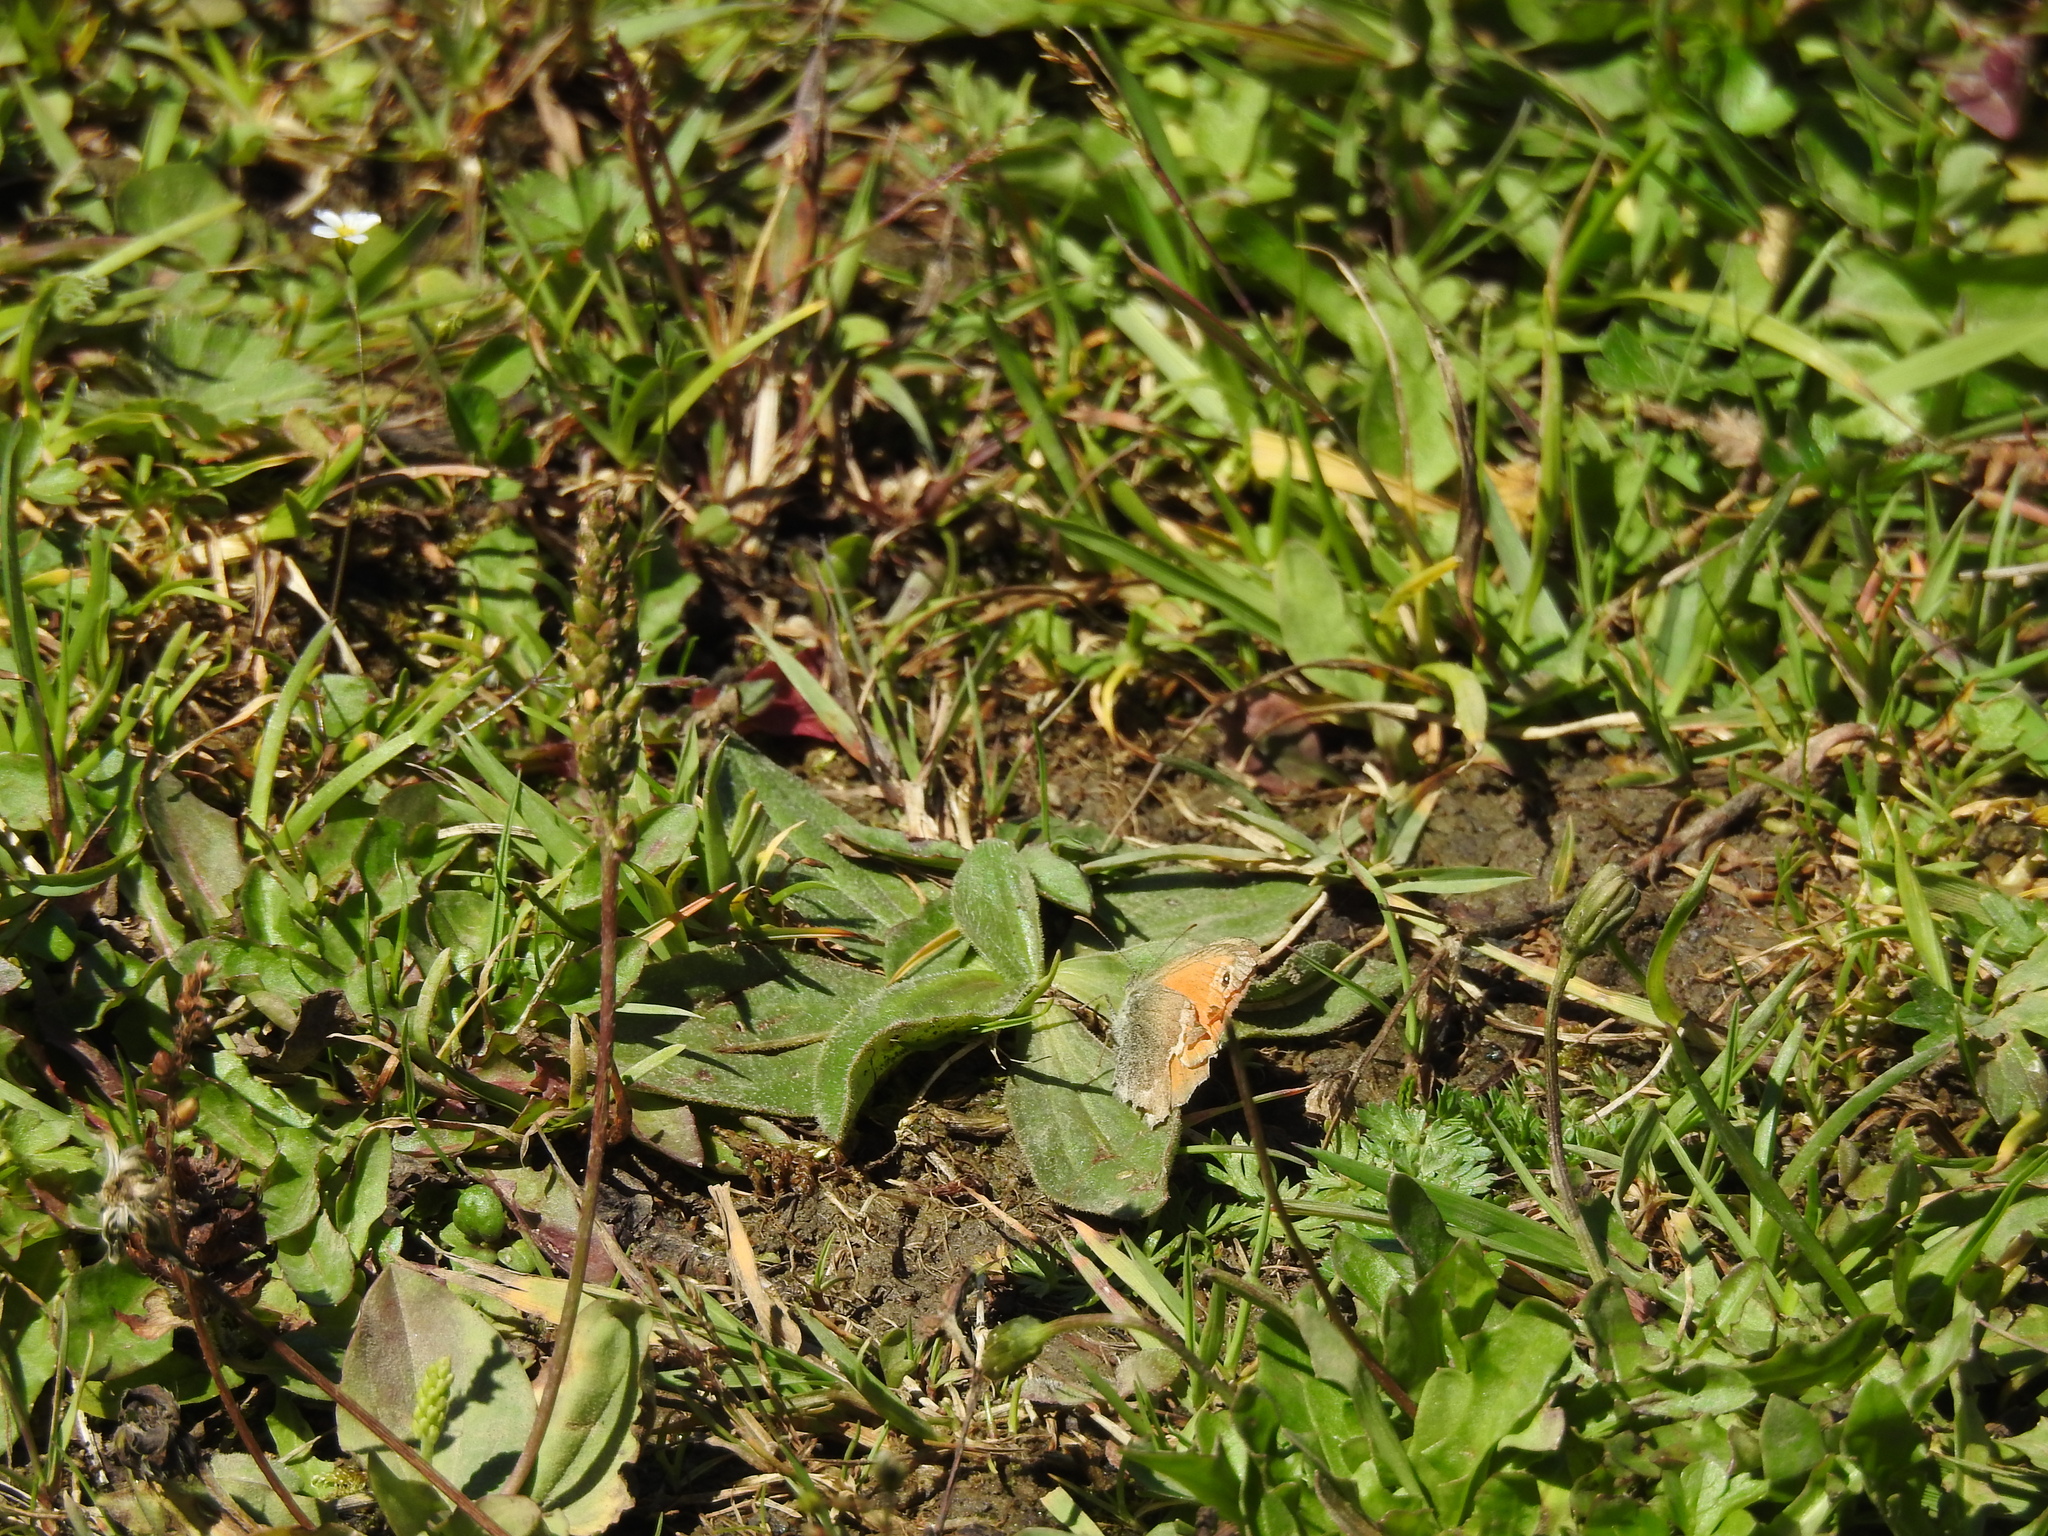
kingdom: Animalia
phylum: Arthropoda
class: Insecta
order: Lepidoptera
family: Nymphalidae
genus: Coenonympha
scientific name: Coenonympha pamphilus
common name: Small heath
